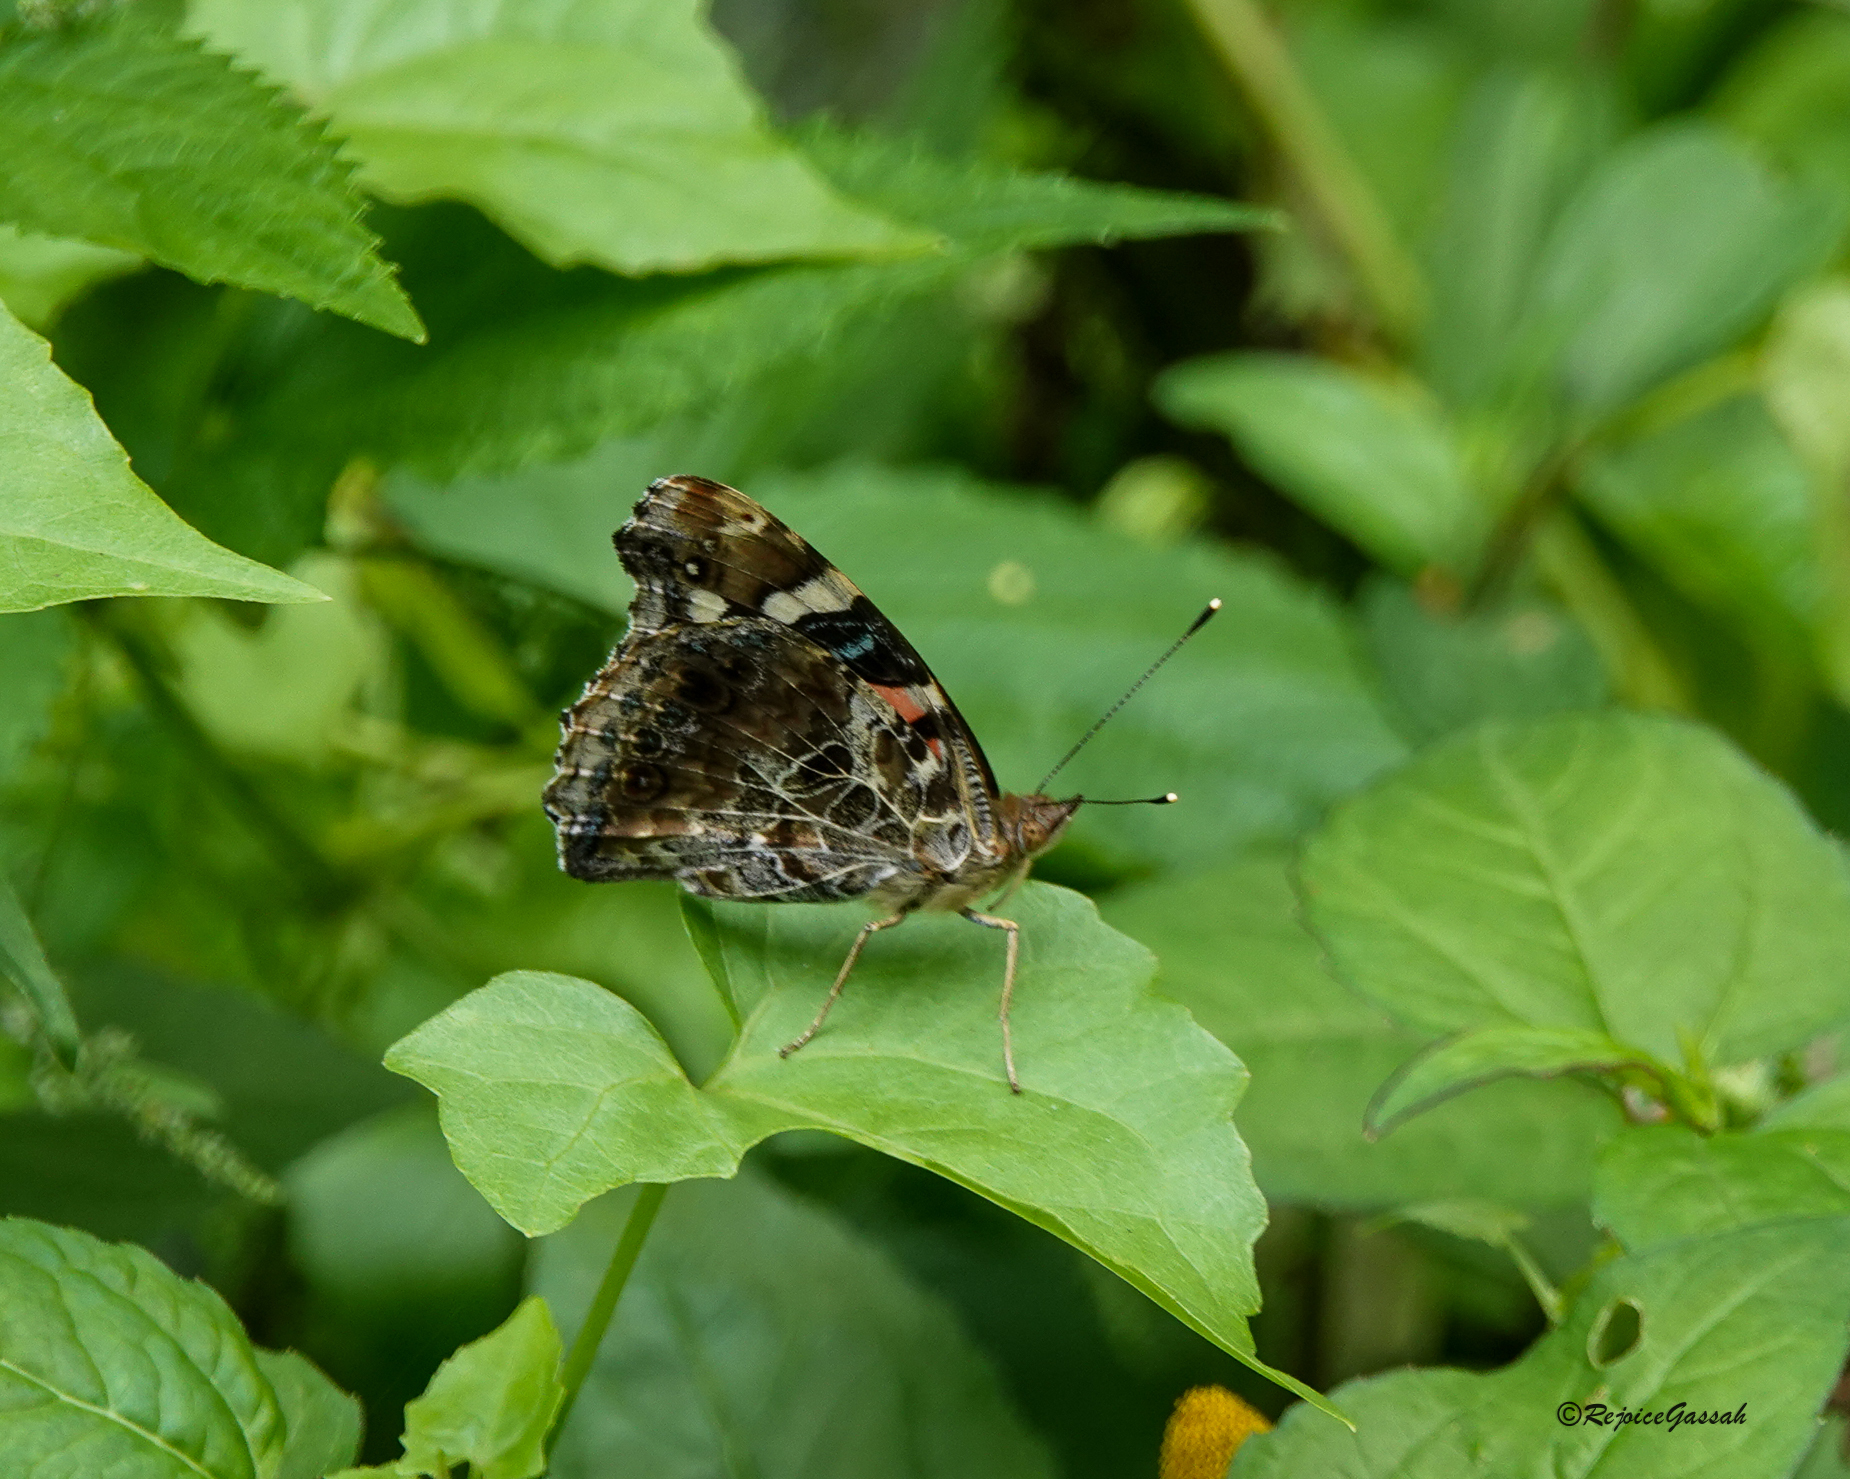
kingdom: Animalia
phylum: Arthropoda
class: Insecta
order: Lepidoptera
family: Nymphalidae
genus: Vanessa
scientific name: Vanessa indica
